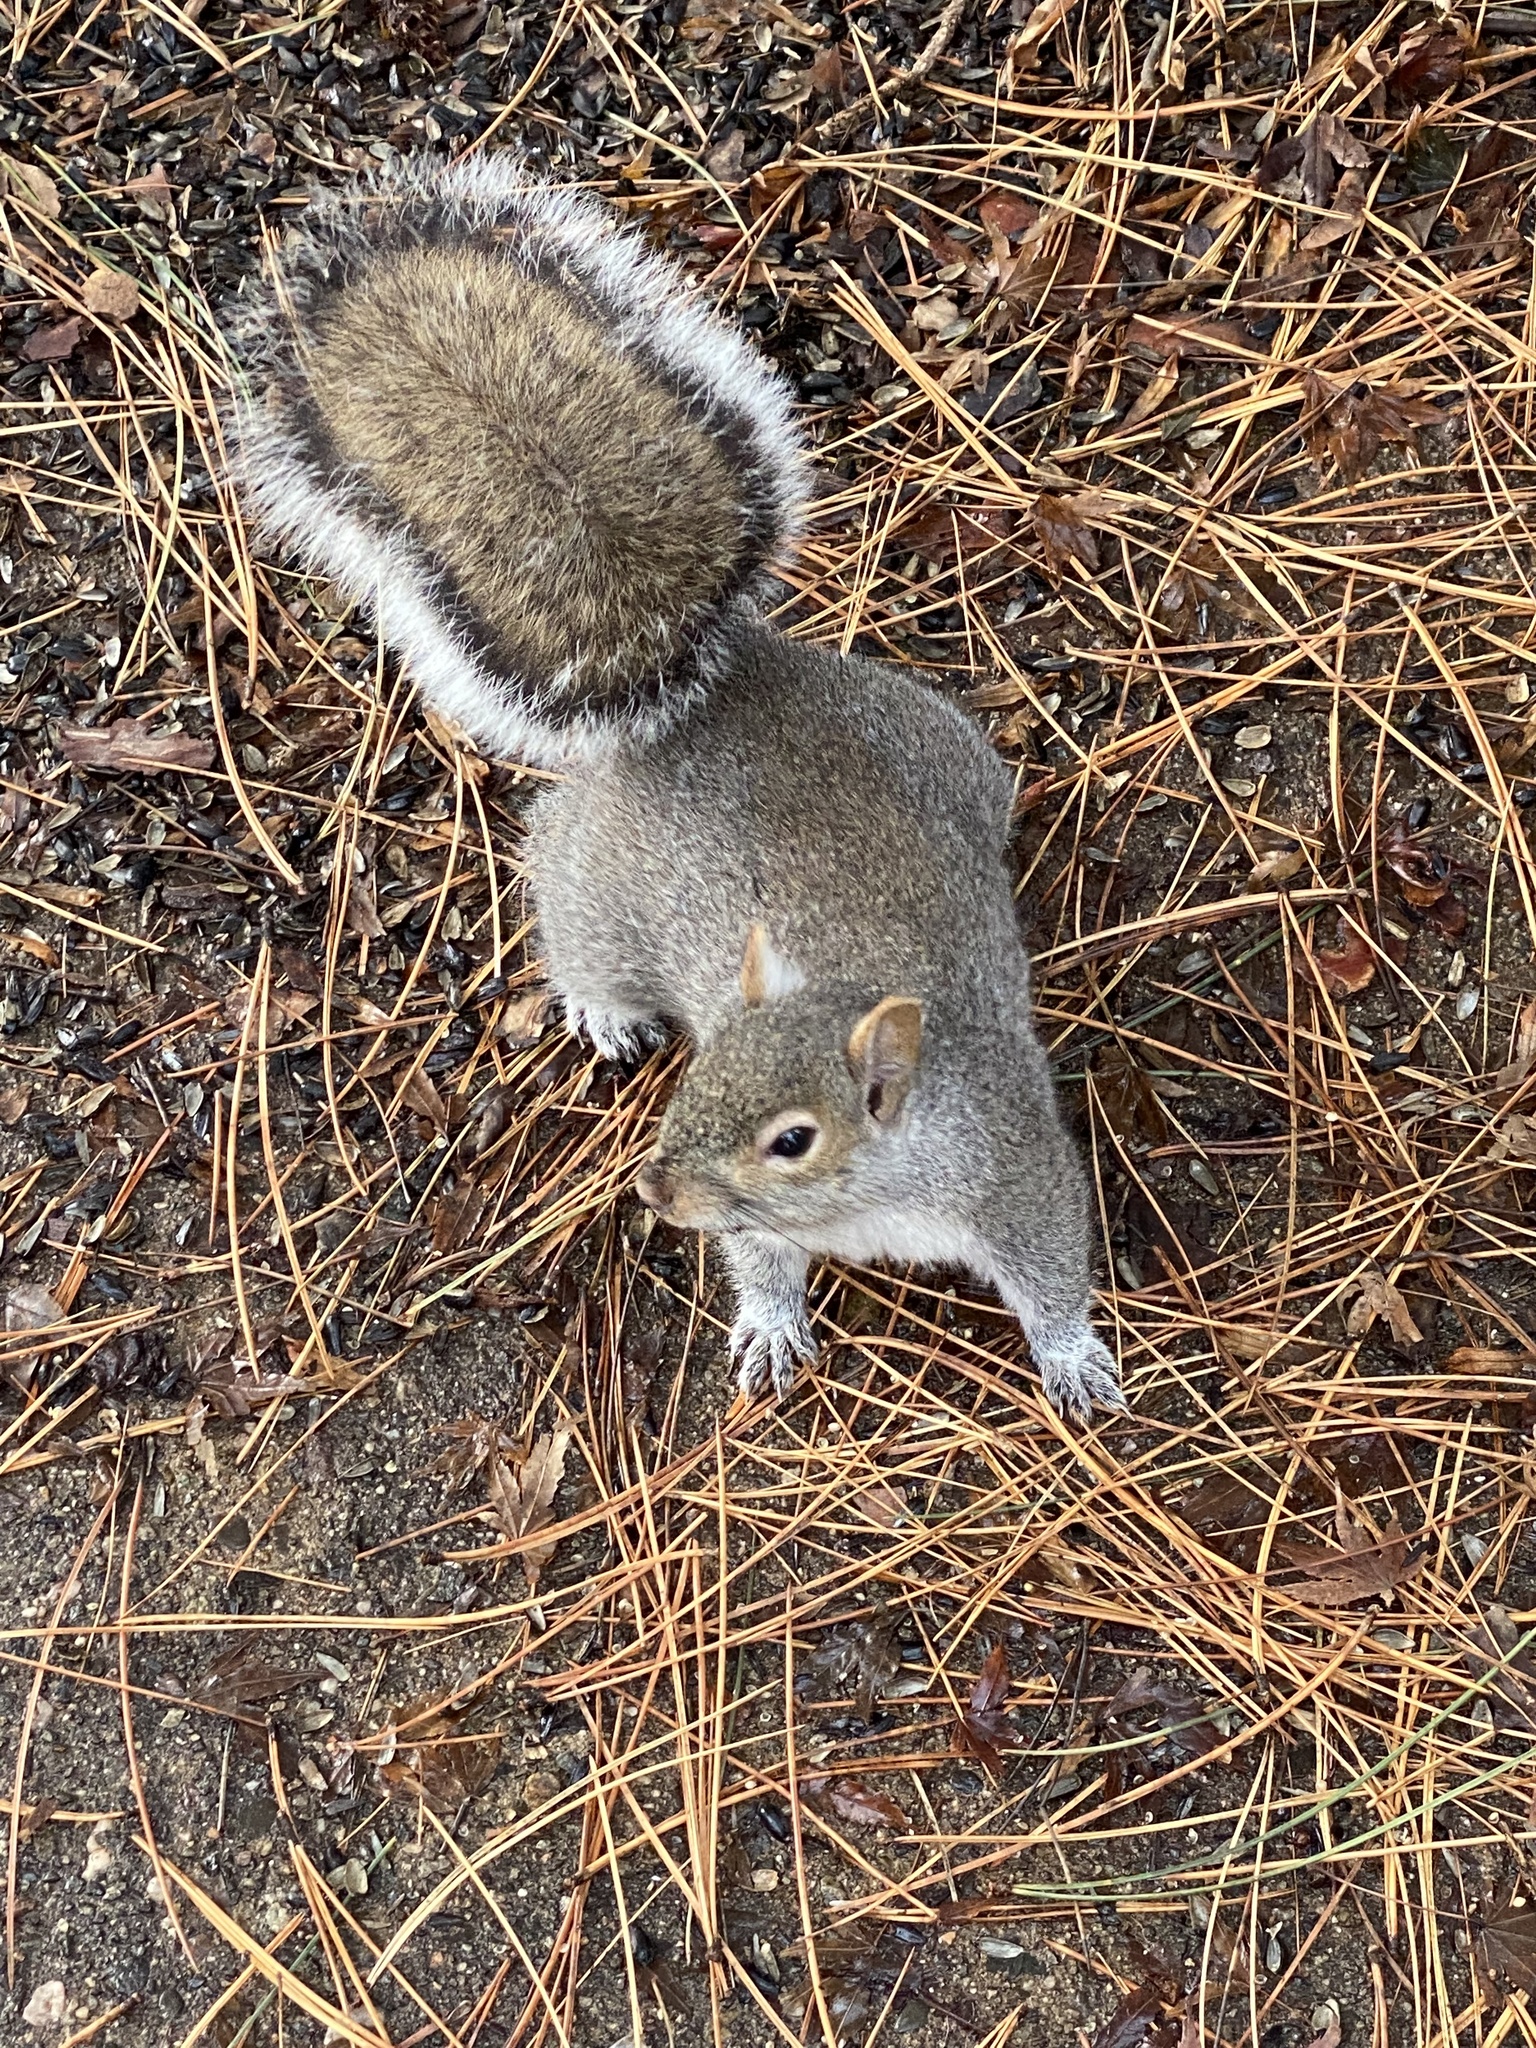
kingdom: Animalia
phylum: Chordata
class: Mammalia
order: Rodentia
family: Sciuridae
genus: Sciurus
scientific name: Sciurus carolinensis
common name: Eastern gray squirrel
